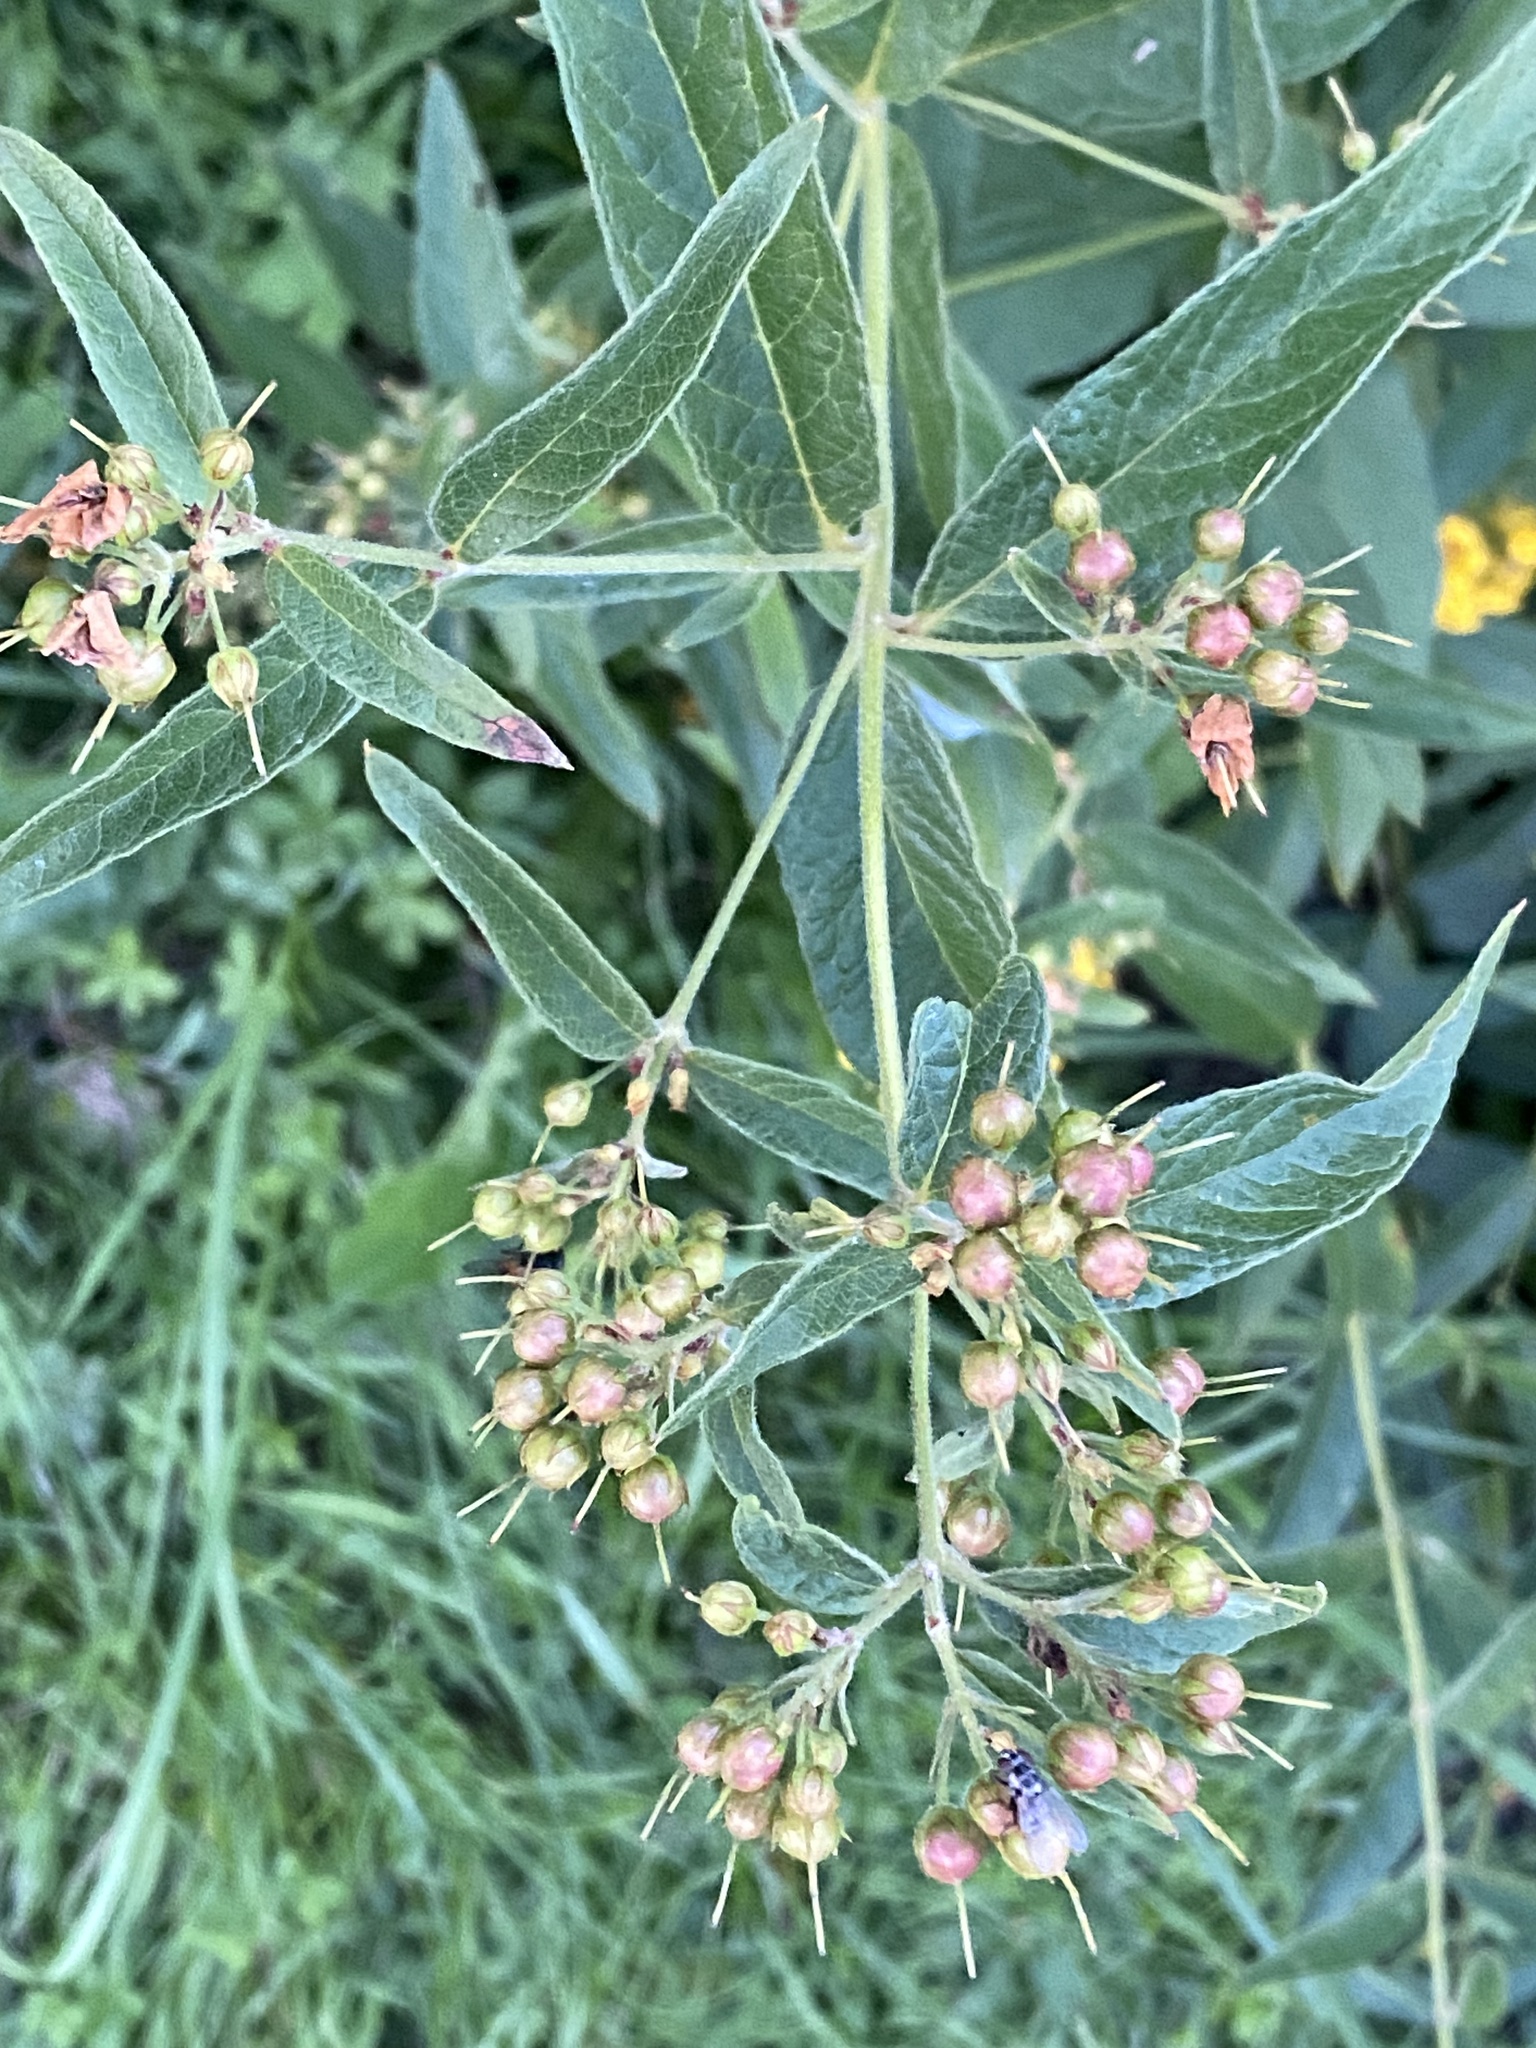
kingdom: Plantae
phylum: Tracheophyta
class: Magnoliopsida
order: Ericales
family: Primulaceae
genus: Lysimachia
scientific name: Lysimachia vulgaris
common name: Yellow loosestrife
